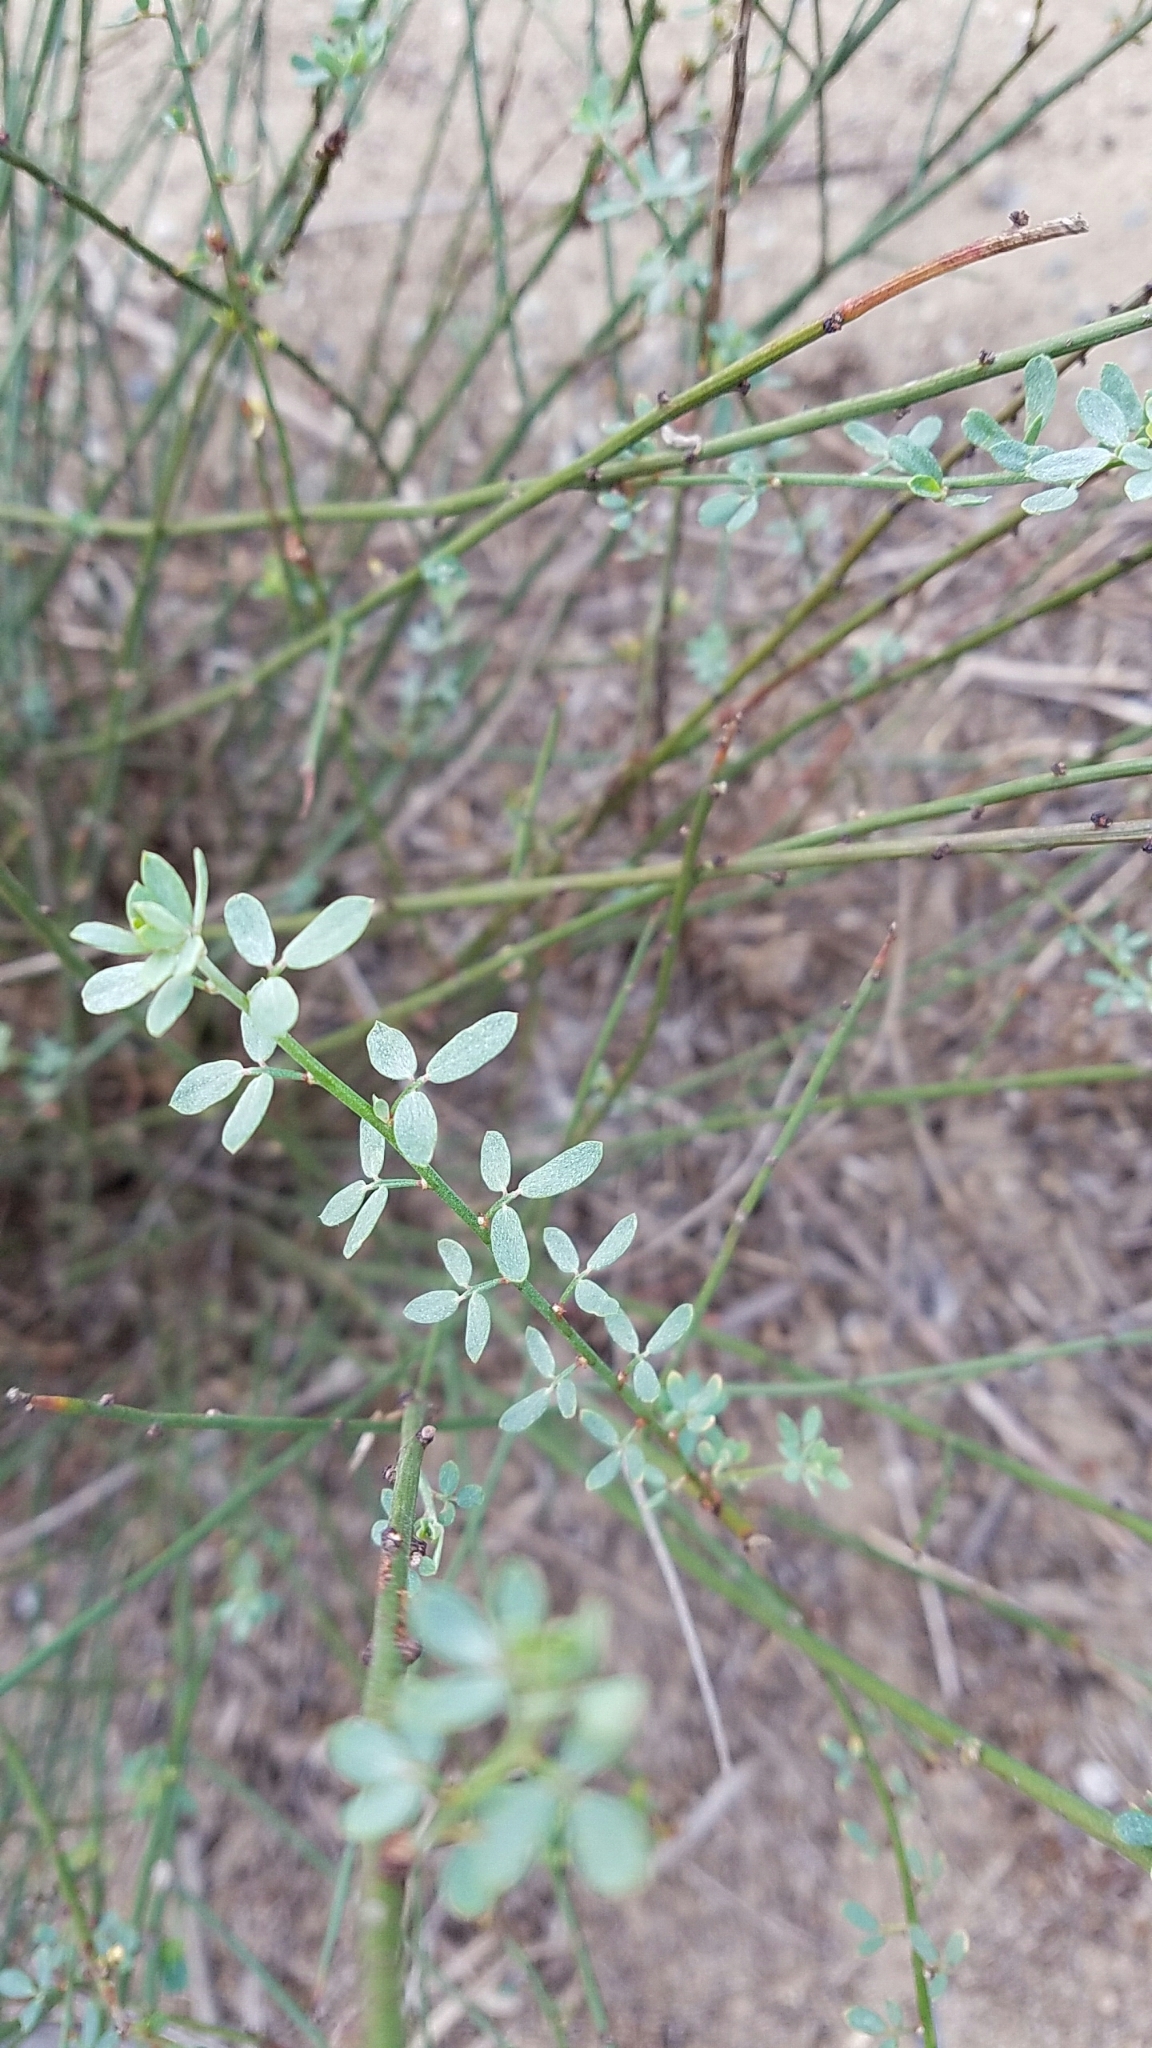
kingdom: Plantae
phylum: Tracheophyta
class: Magnoliopsida
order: Fabales
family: Fabaceae
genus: Acmispon
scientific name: Acmispon glaber
